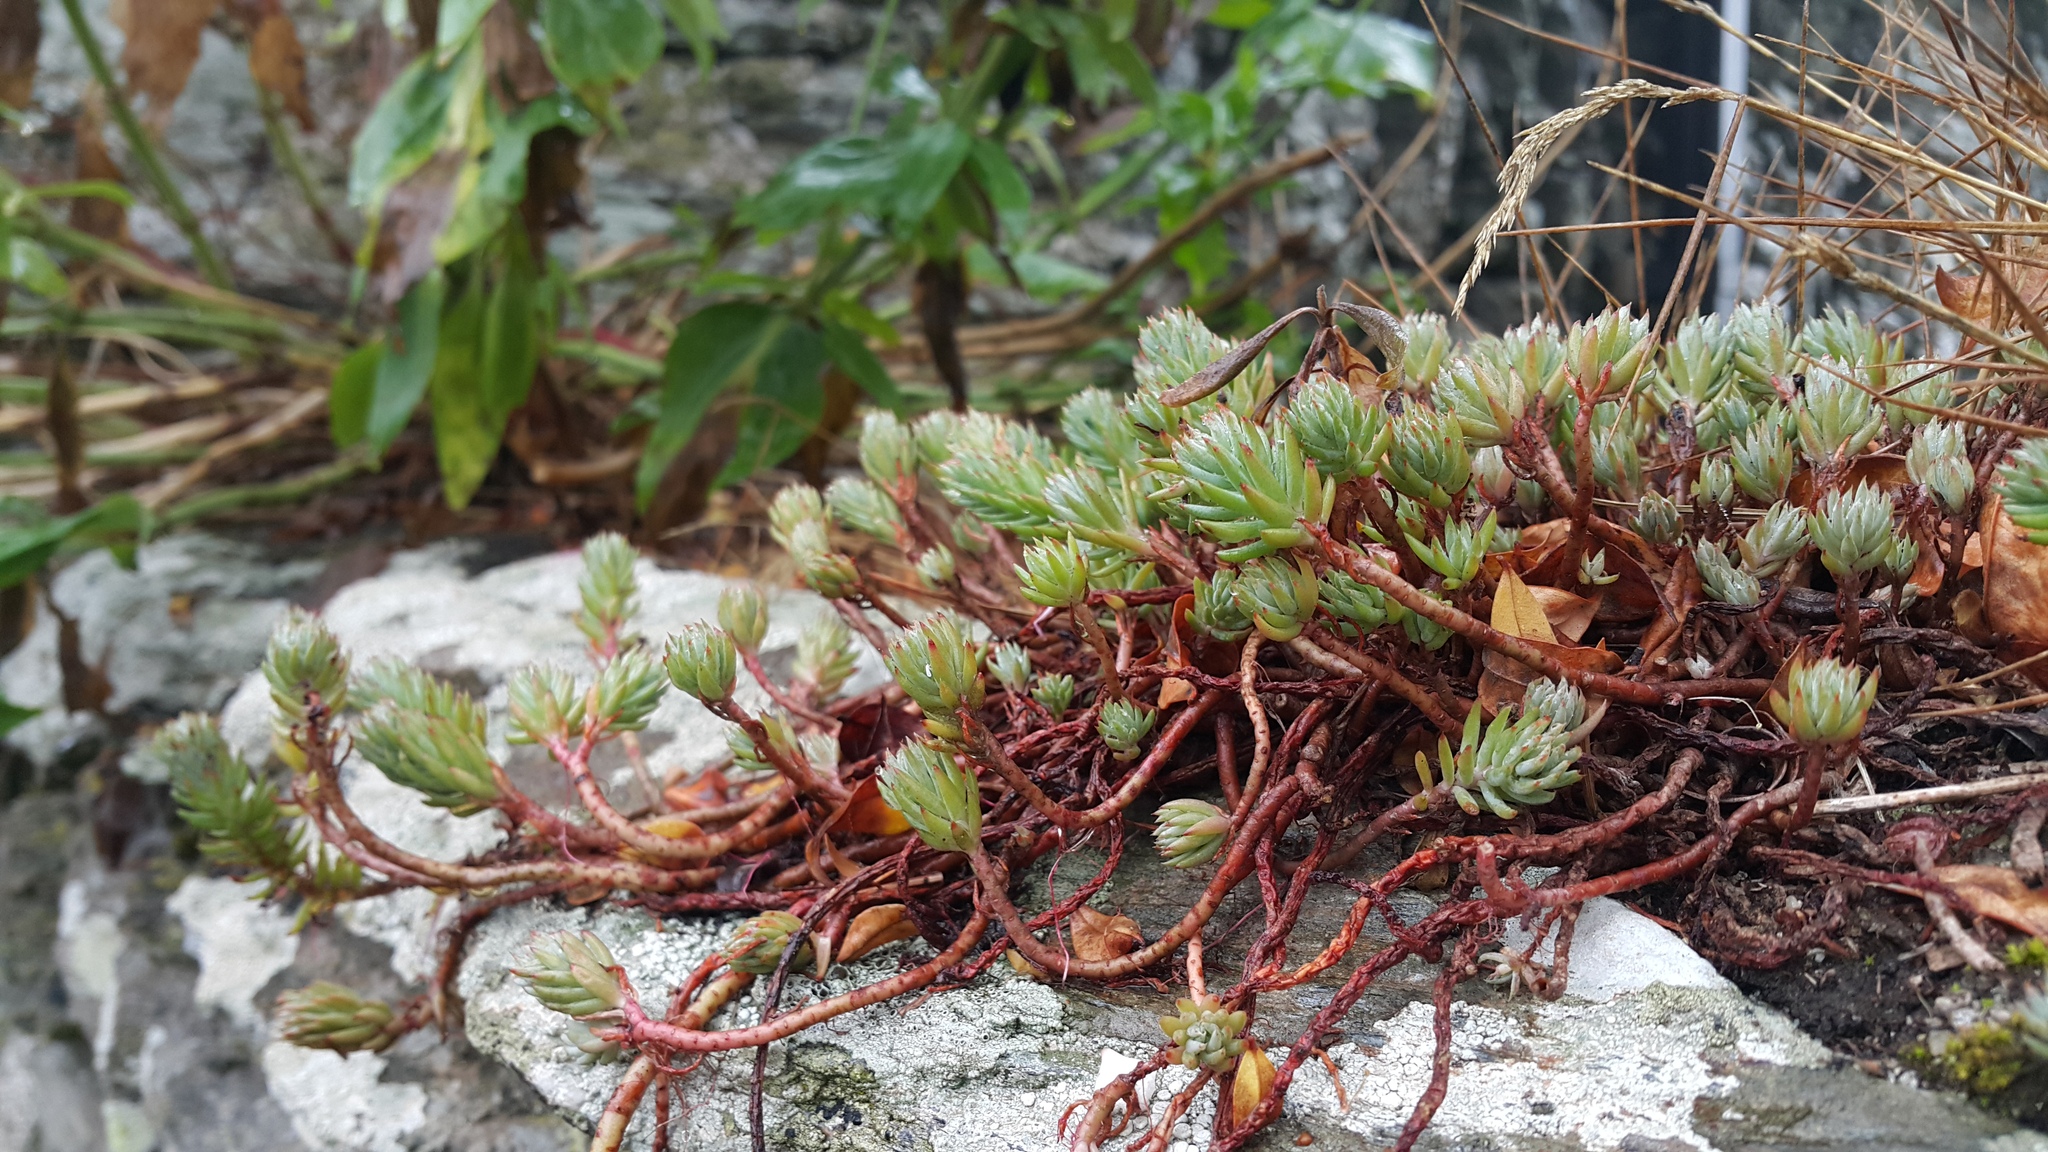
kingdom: Plantae
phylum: Tracheophyta
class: Magnoliopsida
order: Saxifragales
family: Crassulaceae
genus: Petrosedum
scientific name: Petrosedum forsterianum
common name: Forster's stonecrop
